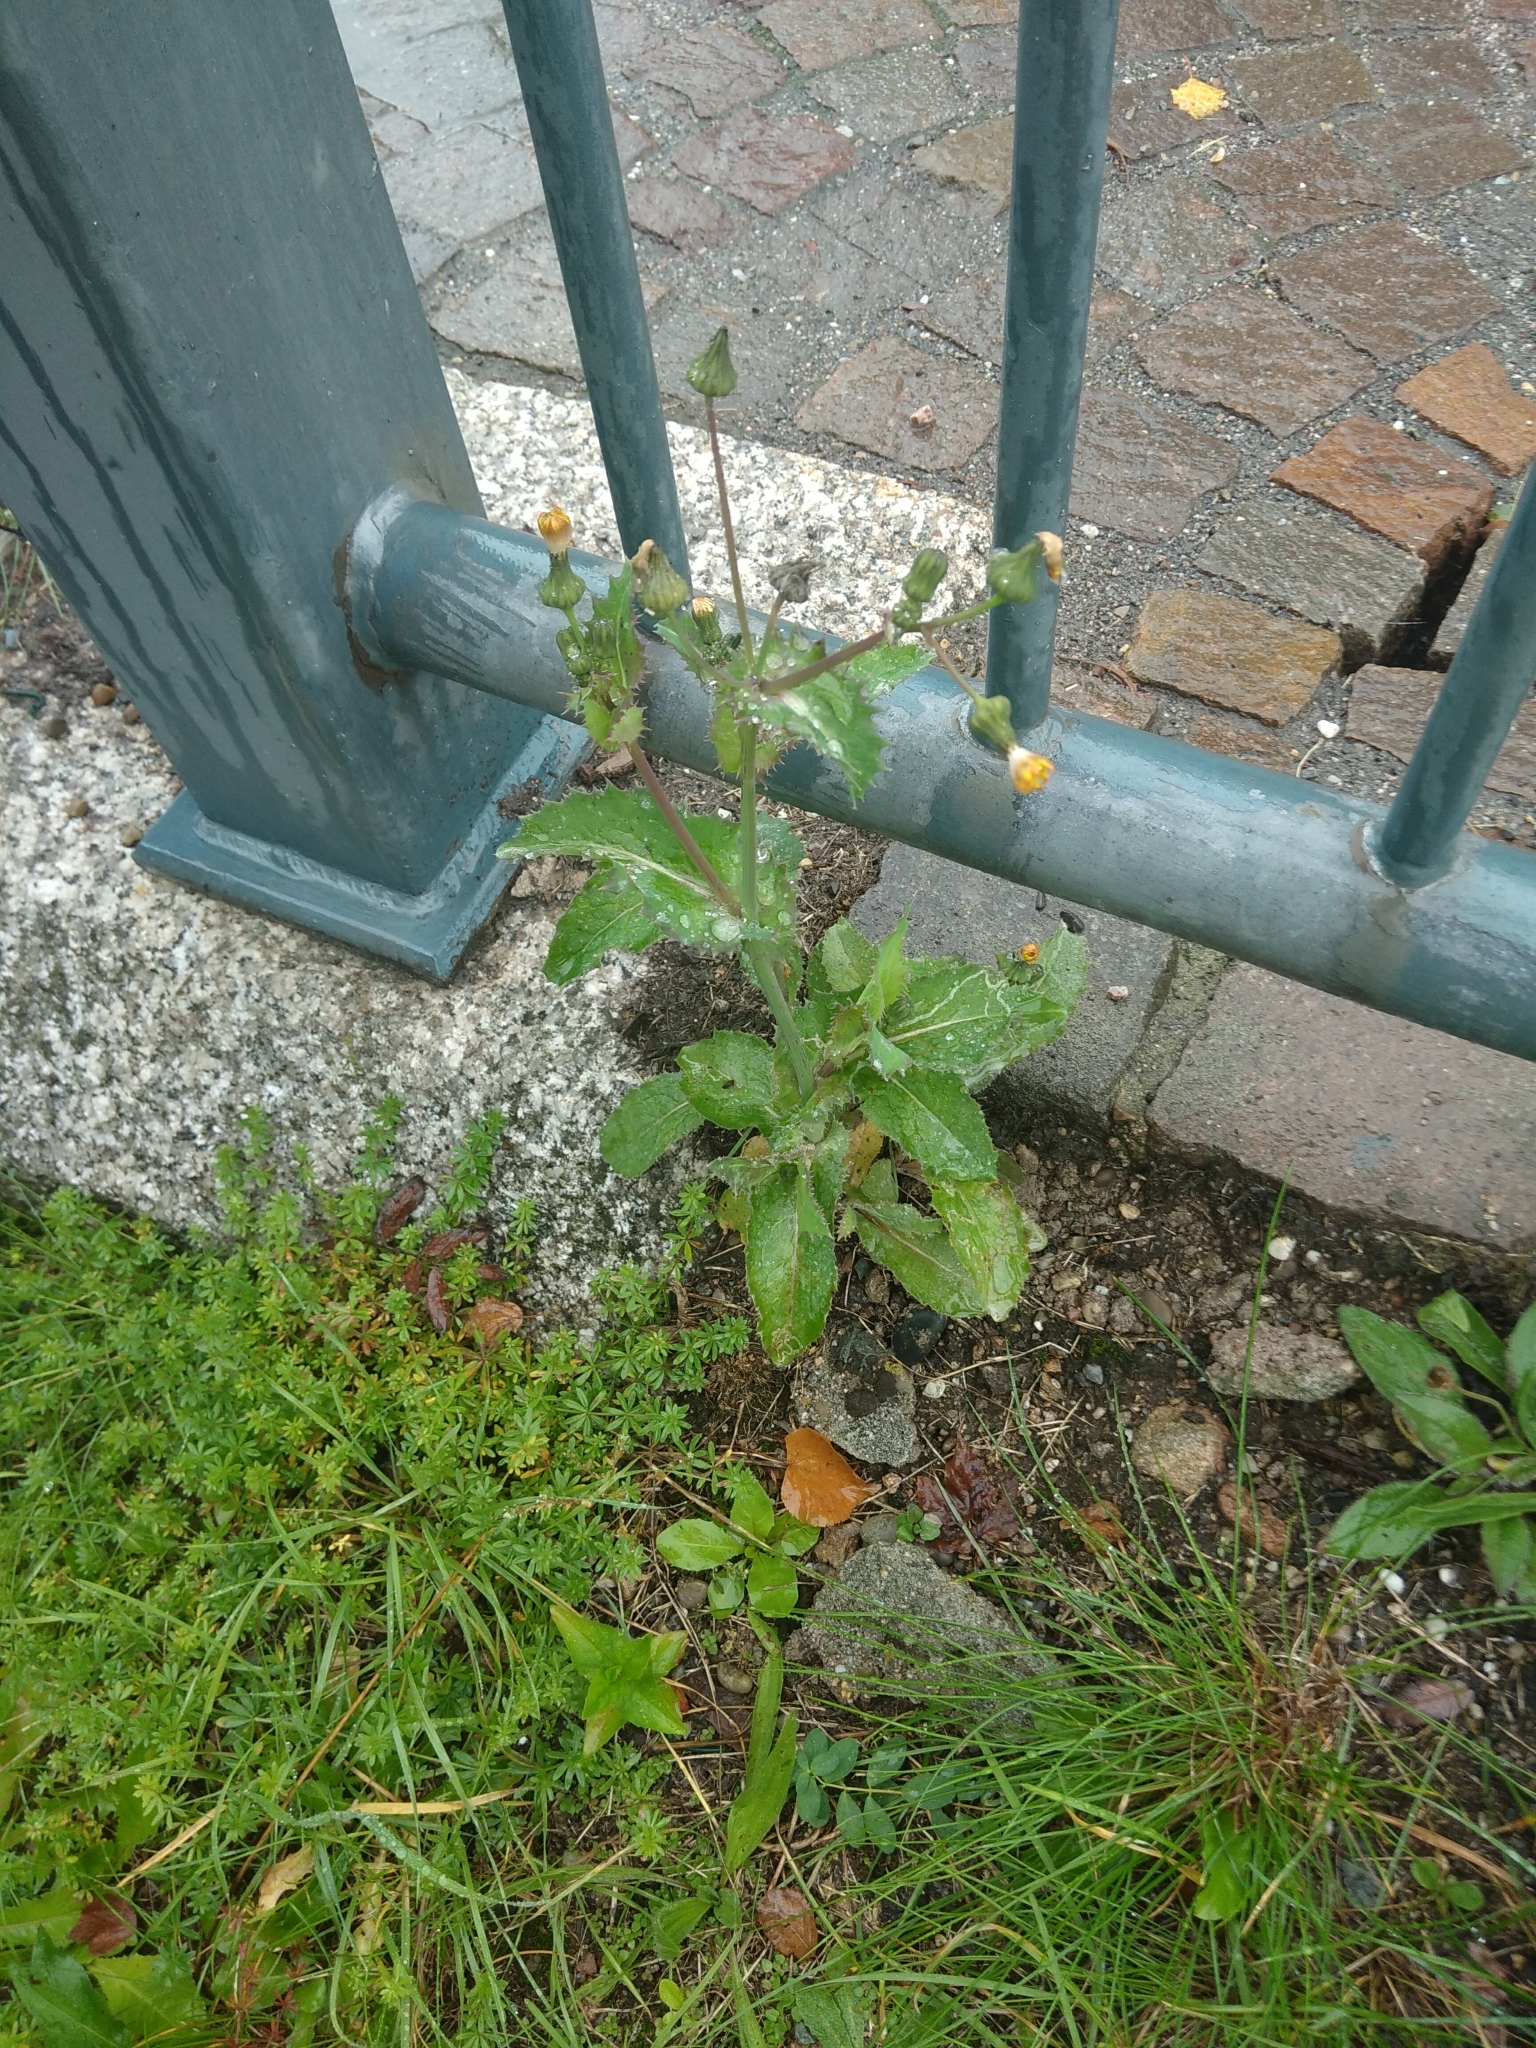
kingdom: Plantae
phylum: Tracheophyta
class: Magnoliopsida
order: Asterales
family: Asteraceae
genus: Sonchus
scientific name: Sonchus asper
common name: Prickly sow-thistle
